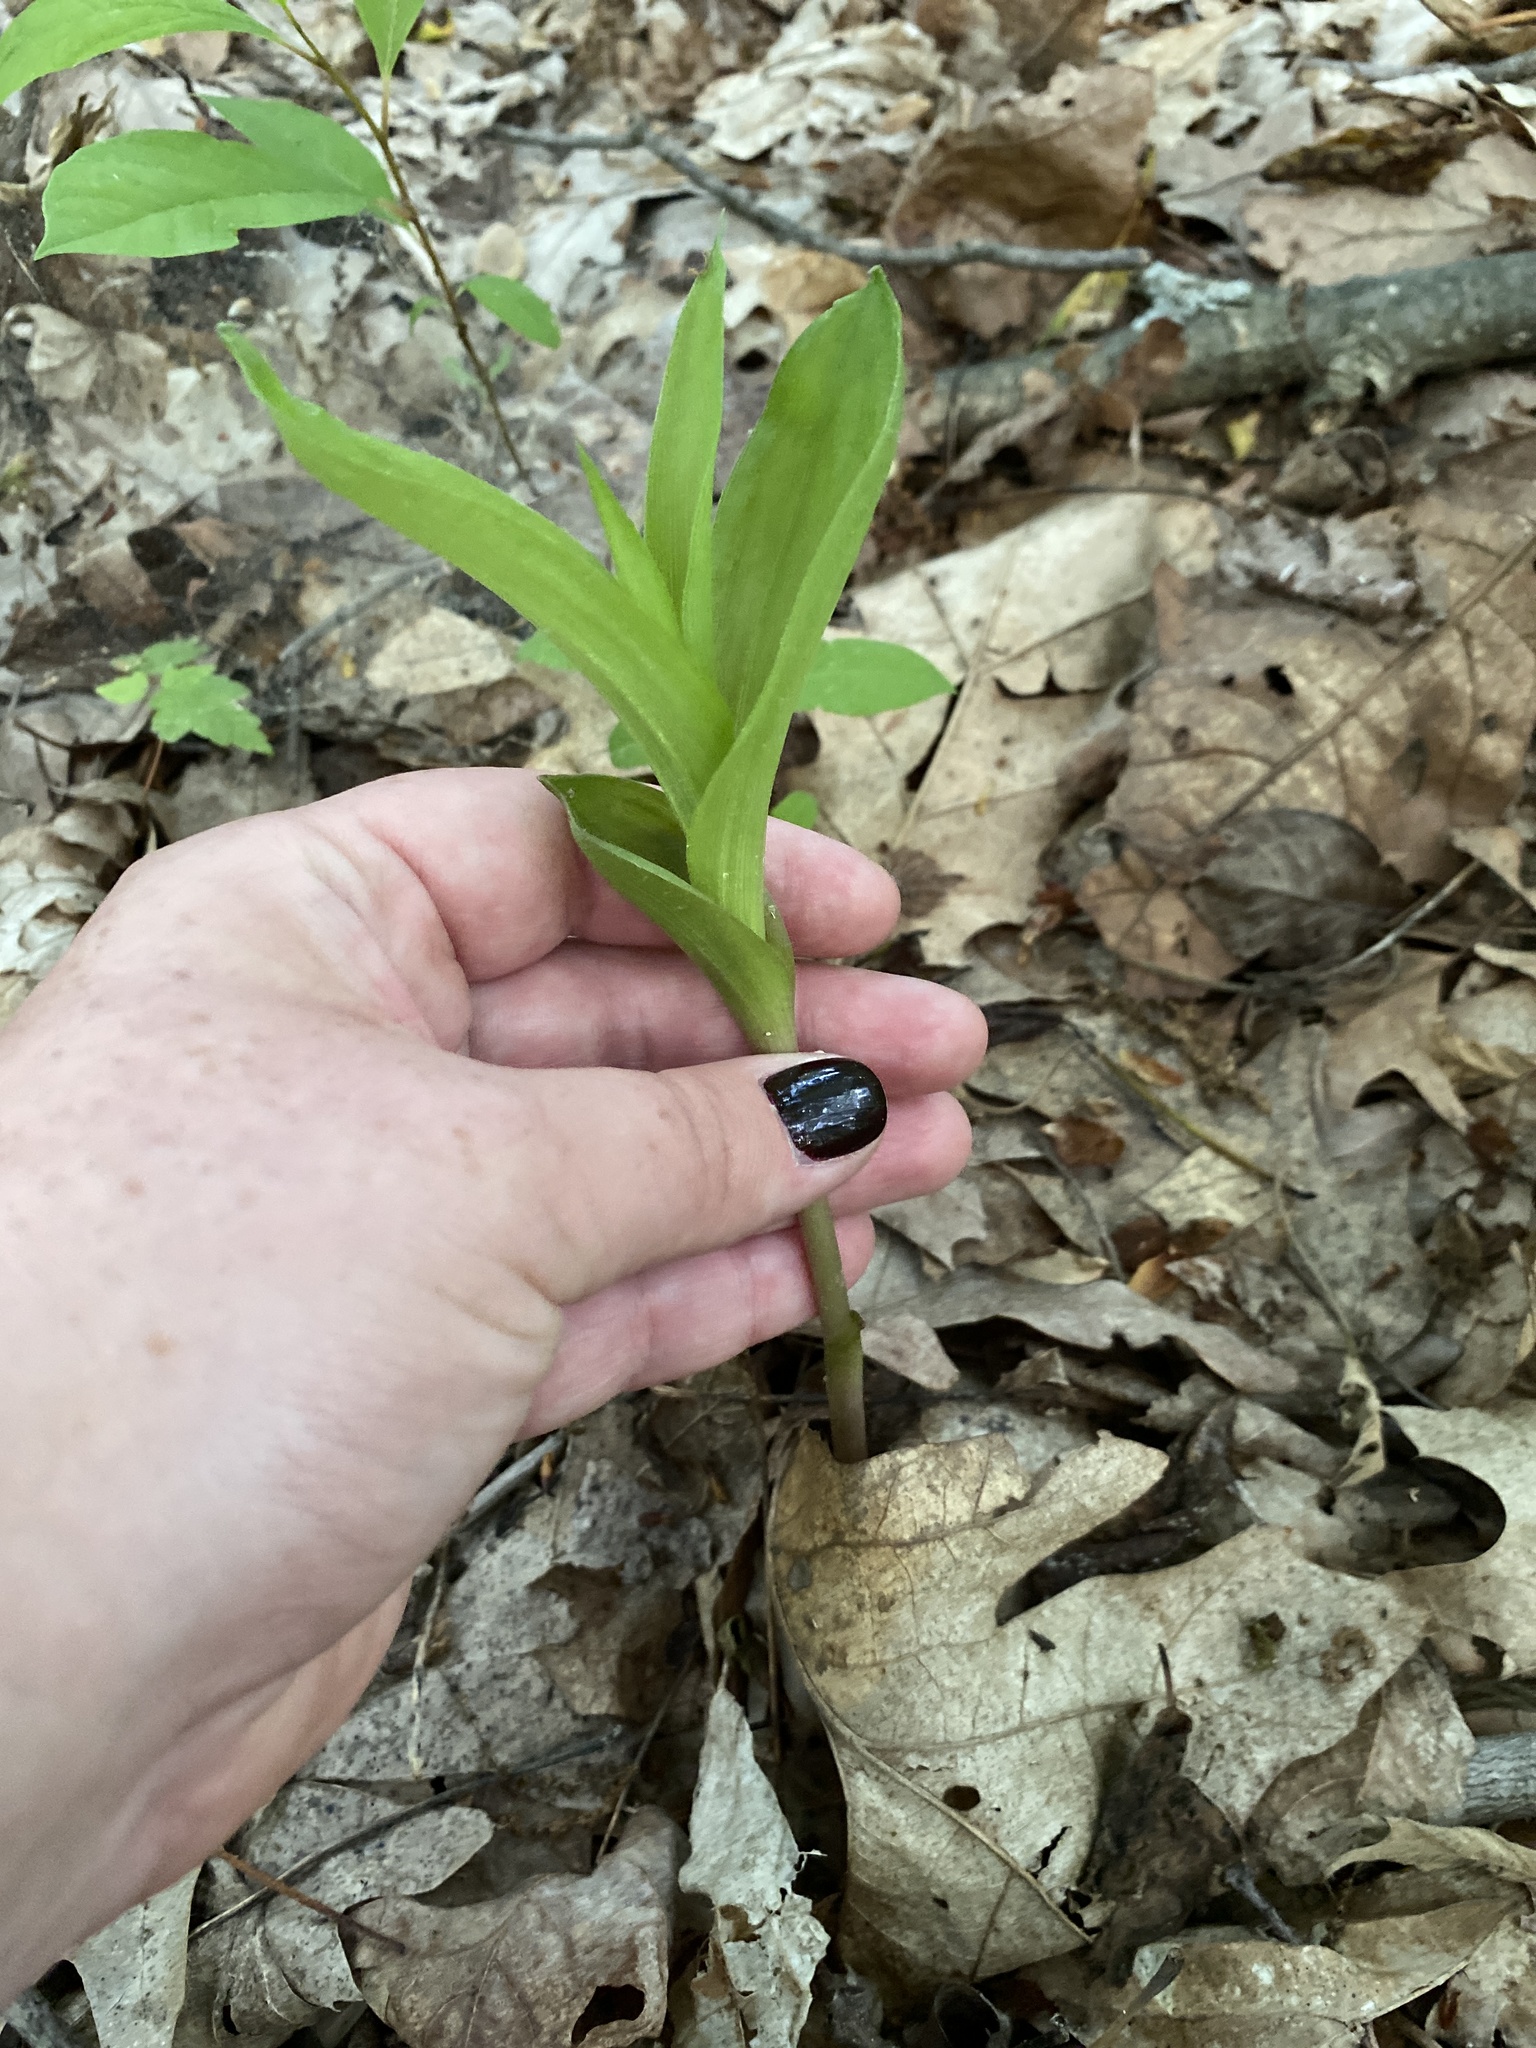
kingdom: Plantae
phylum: Tracheophyta
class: Liliopsida
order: Asparagales
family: Orchidaceae
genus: Epipactis
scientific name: Epipactis helleborine
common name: Broad-leaved helleborine
